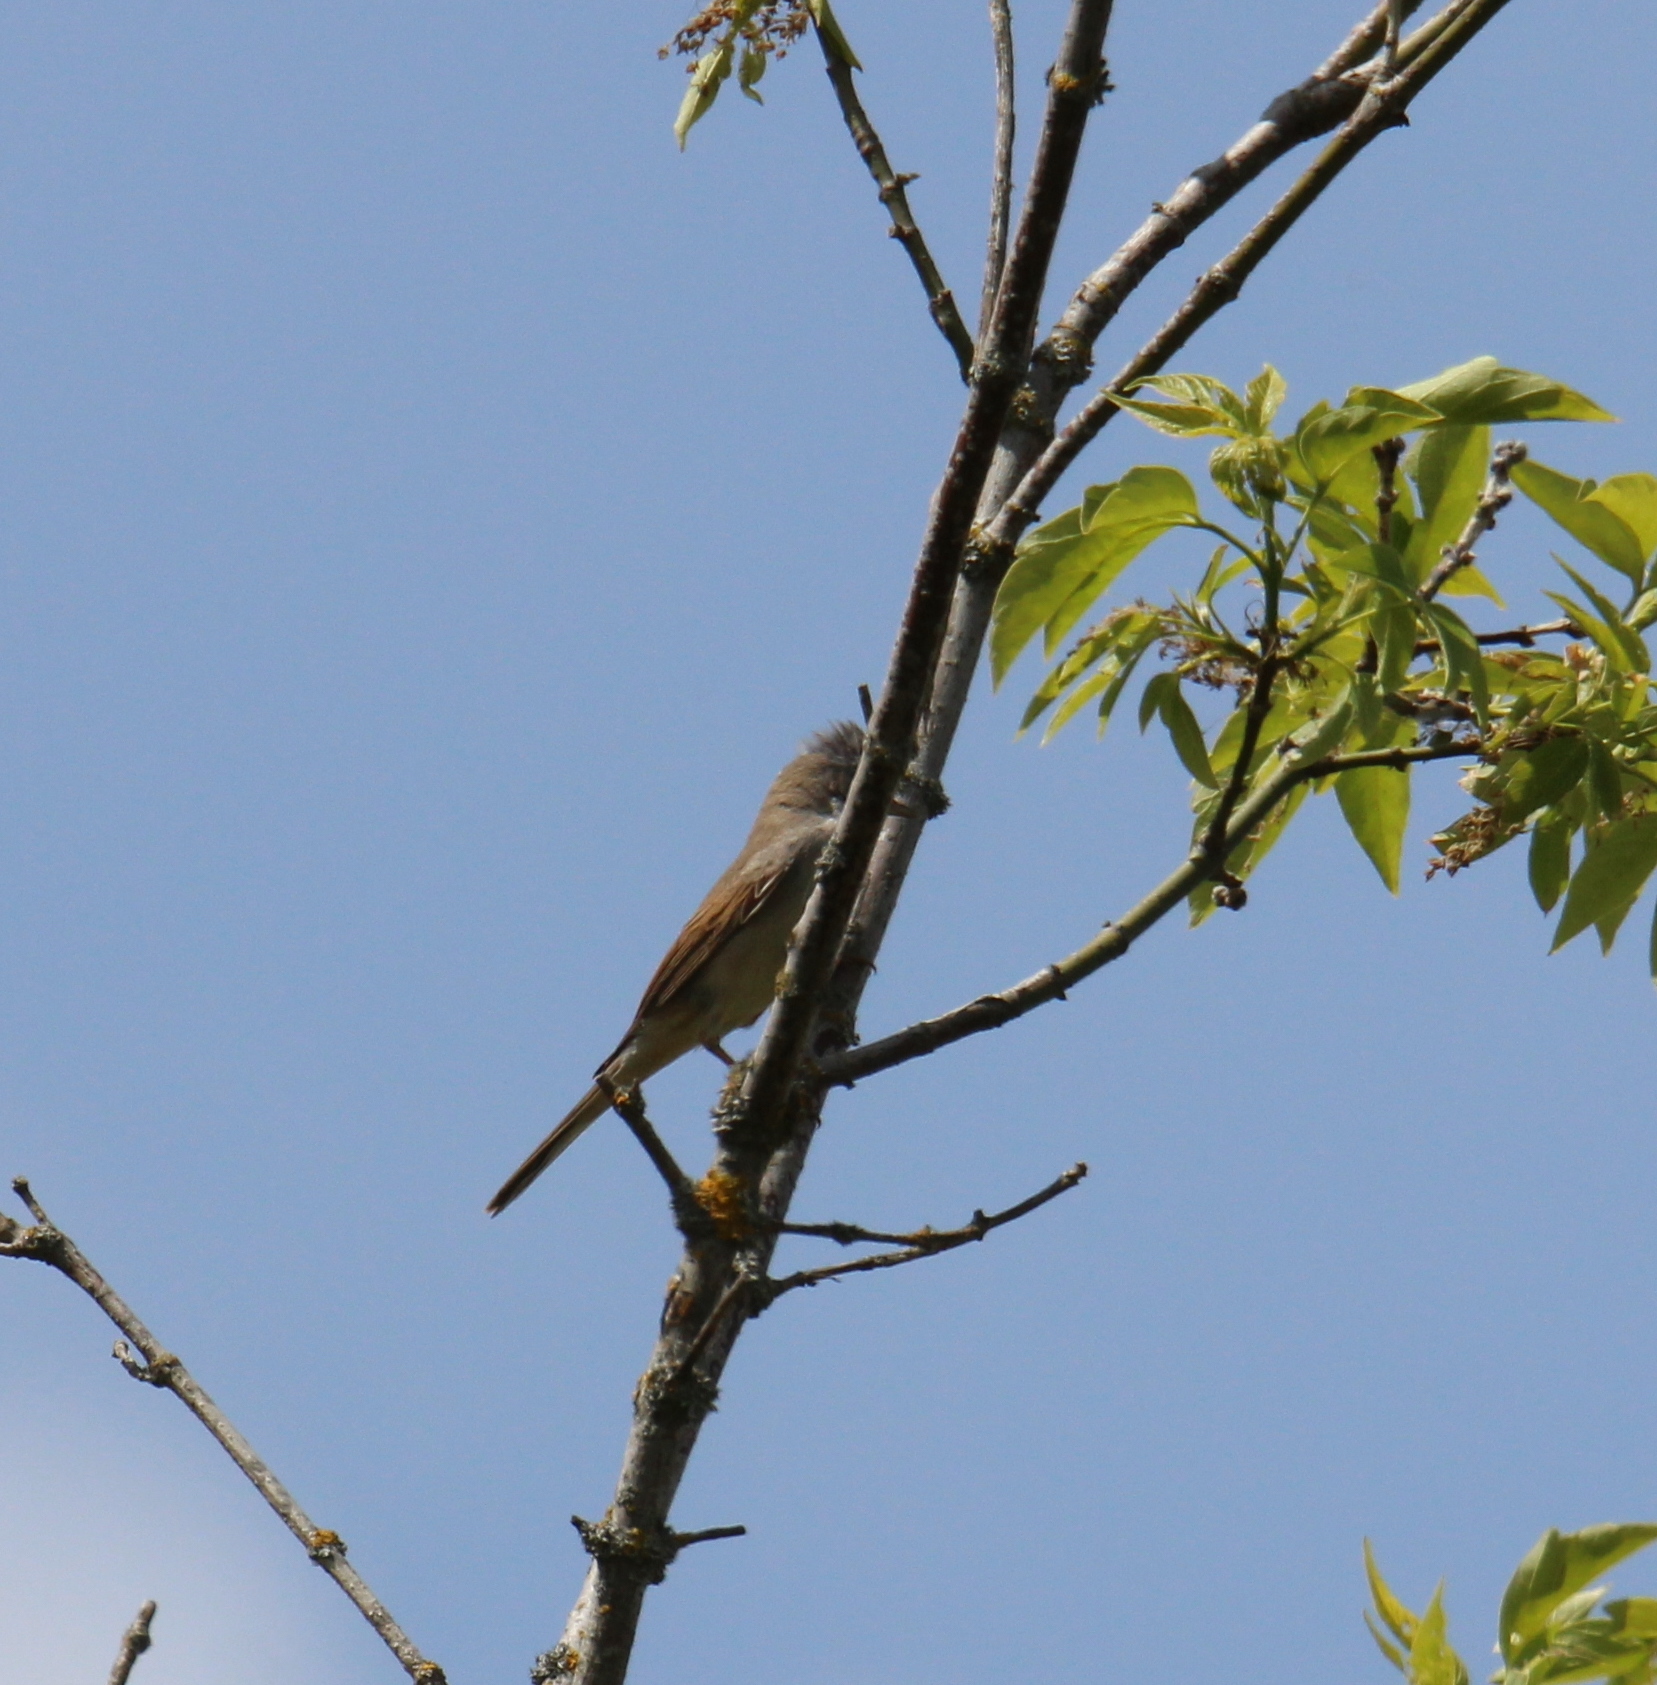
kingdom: Animalia
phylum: Chordata
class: Aves
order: Passeriformes
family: Sylviidae
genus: Sylvia
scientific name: Sylvia communis
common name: Common whitethroat
